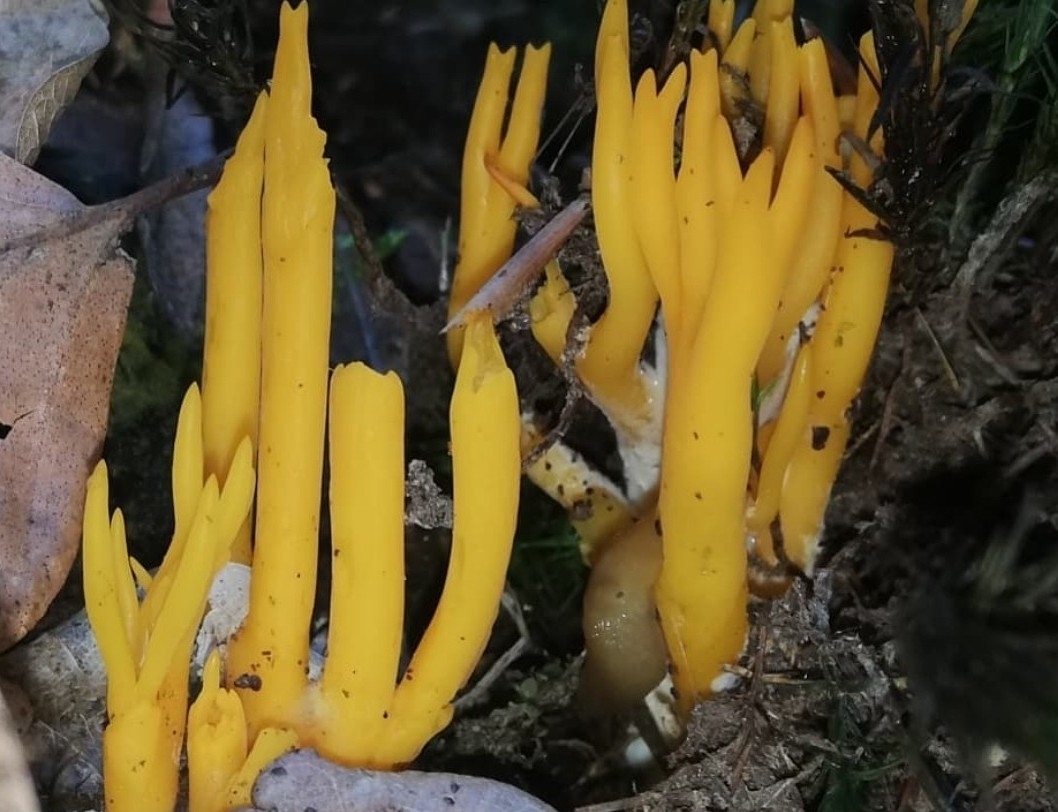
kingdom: Animalia
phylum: Mollusca
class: Gastropoda
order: Stylommatophora
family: Limacidae
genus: Malacolimax
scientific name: Malacolimax tenellus
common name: Lemon slug
